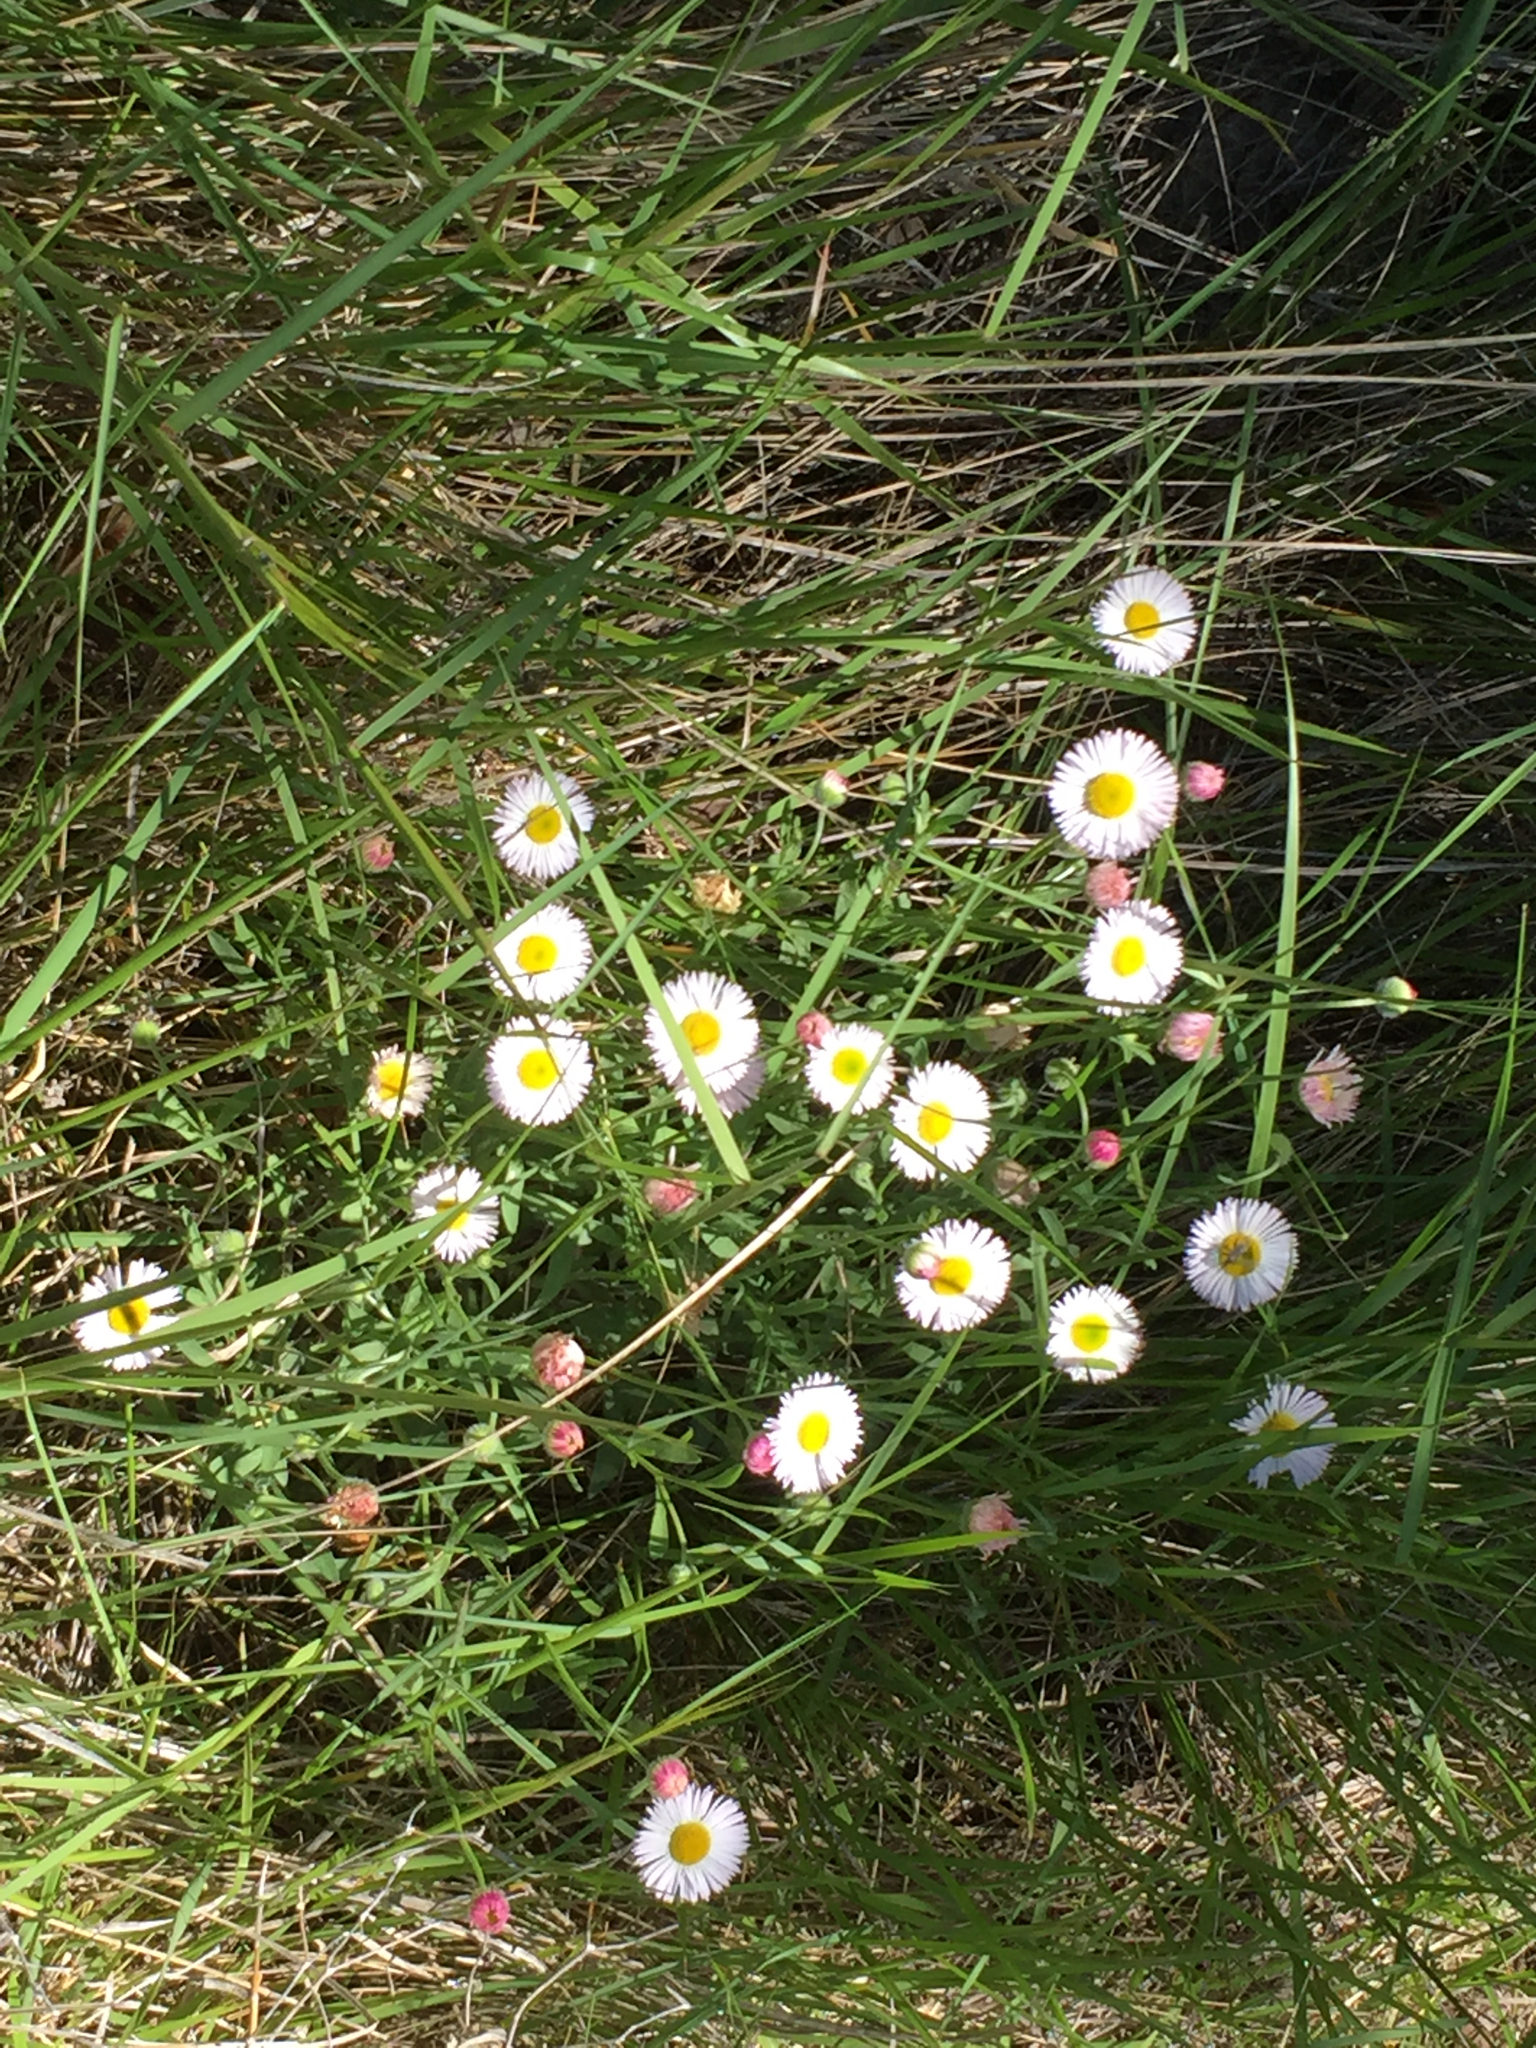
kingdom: Plantae
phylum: Tracheophyta
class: Magnoliopsida
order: Asterales
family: Asteraceae
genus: Erigeron
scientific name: Erigeron philadelphicus
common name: Robin's-plantain
